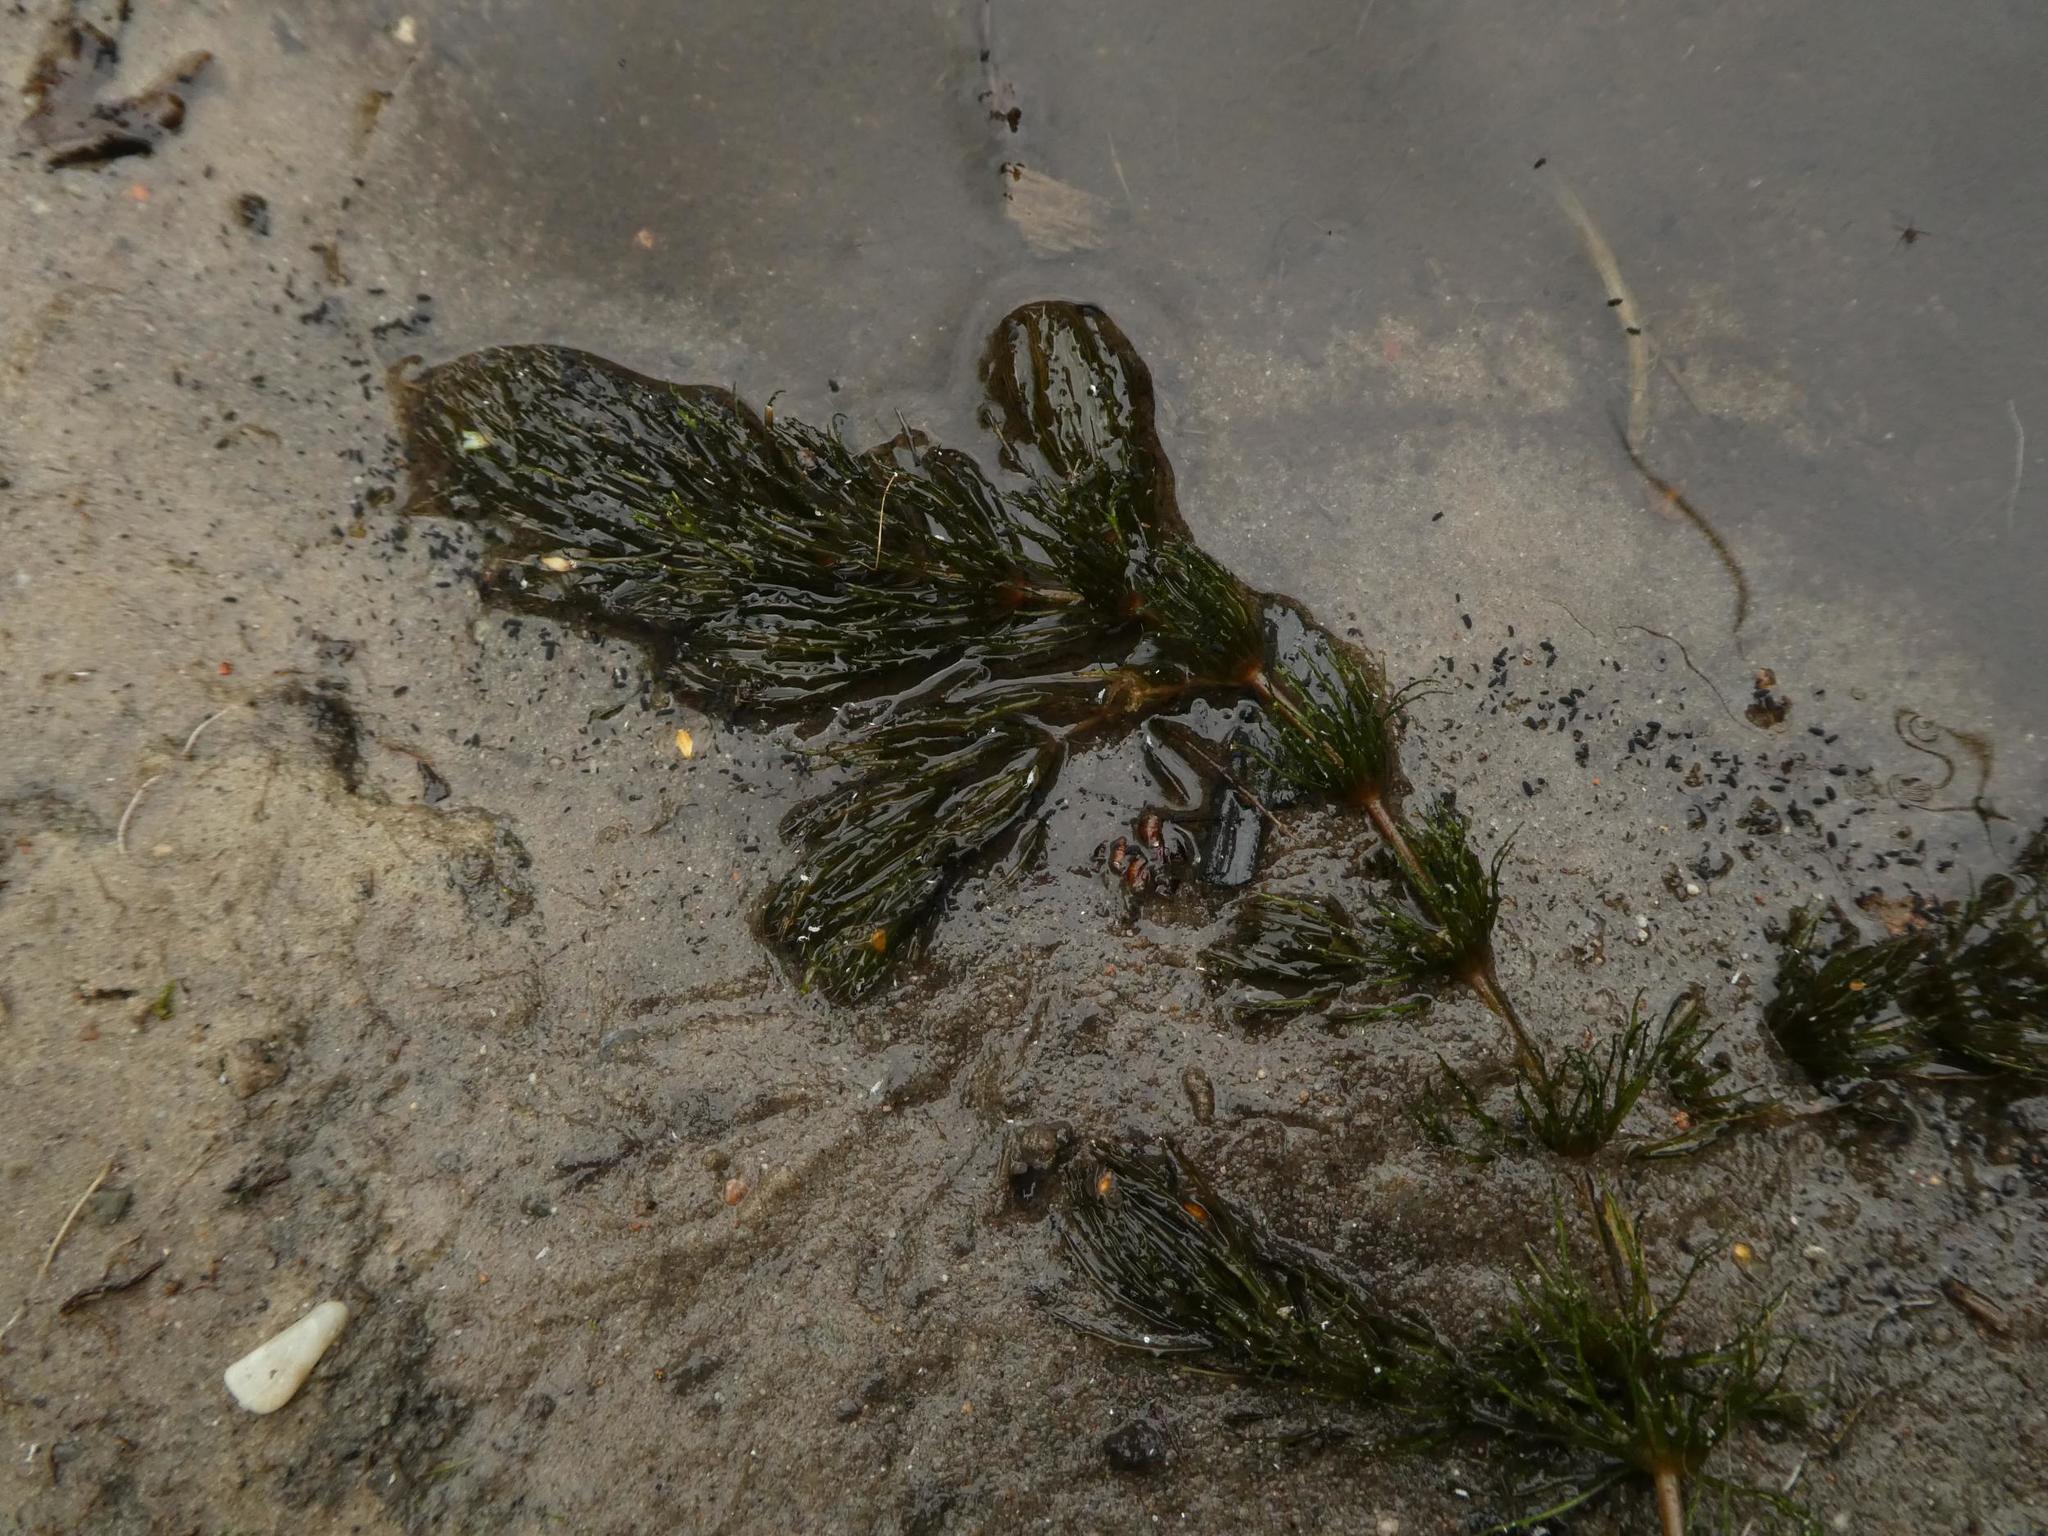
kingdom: Plantae
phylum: Tracheophyta
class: Magnoliopsida
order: Ceratophyllales
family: Ceratophyllaceae
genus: Ceratophyllum
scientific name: Ceratophyllum demersum
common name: Rigid hornwort
